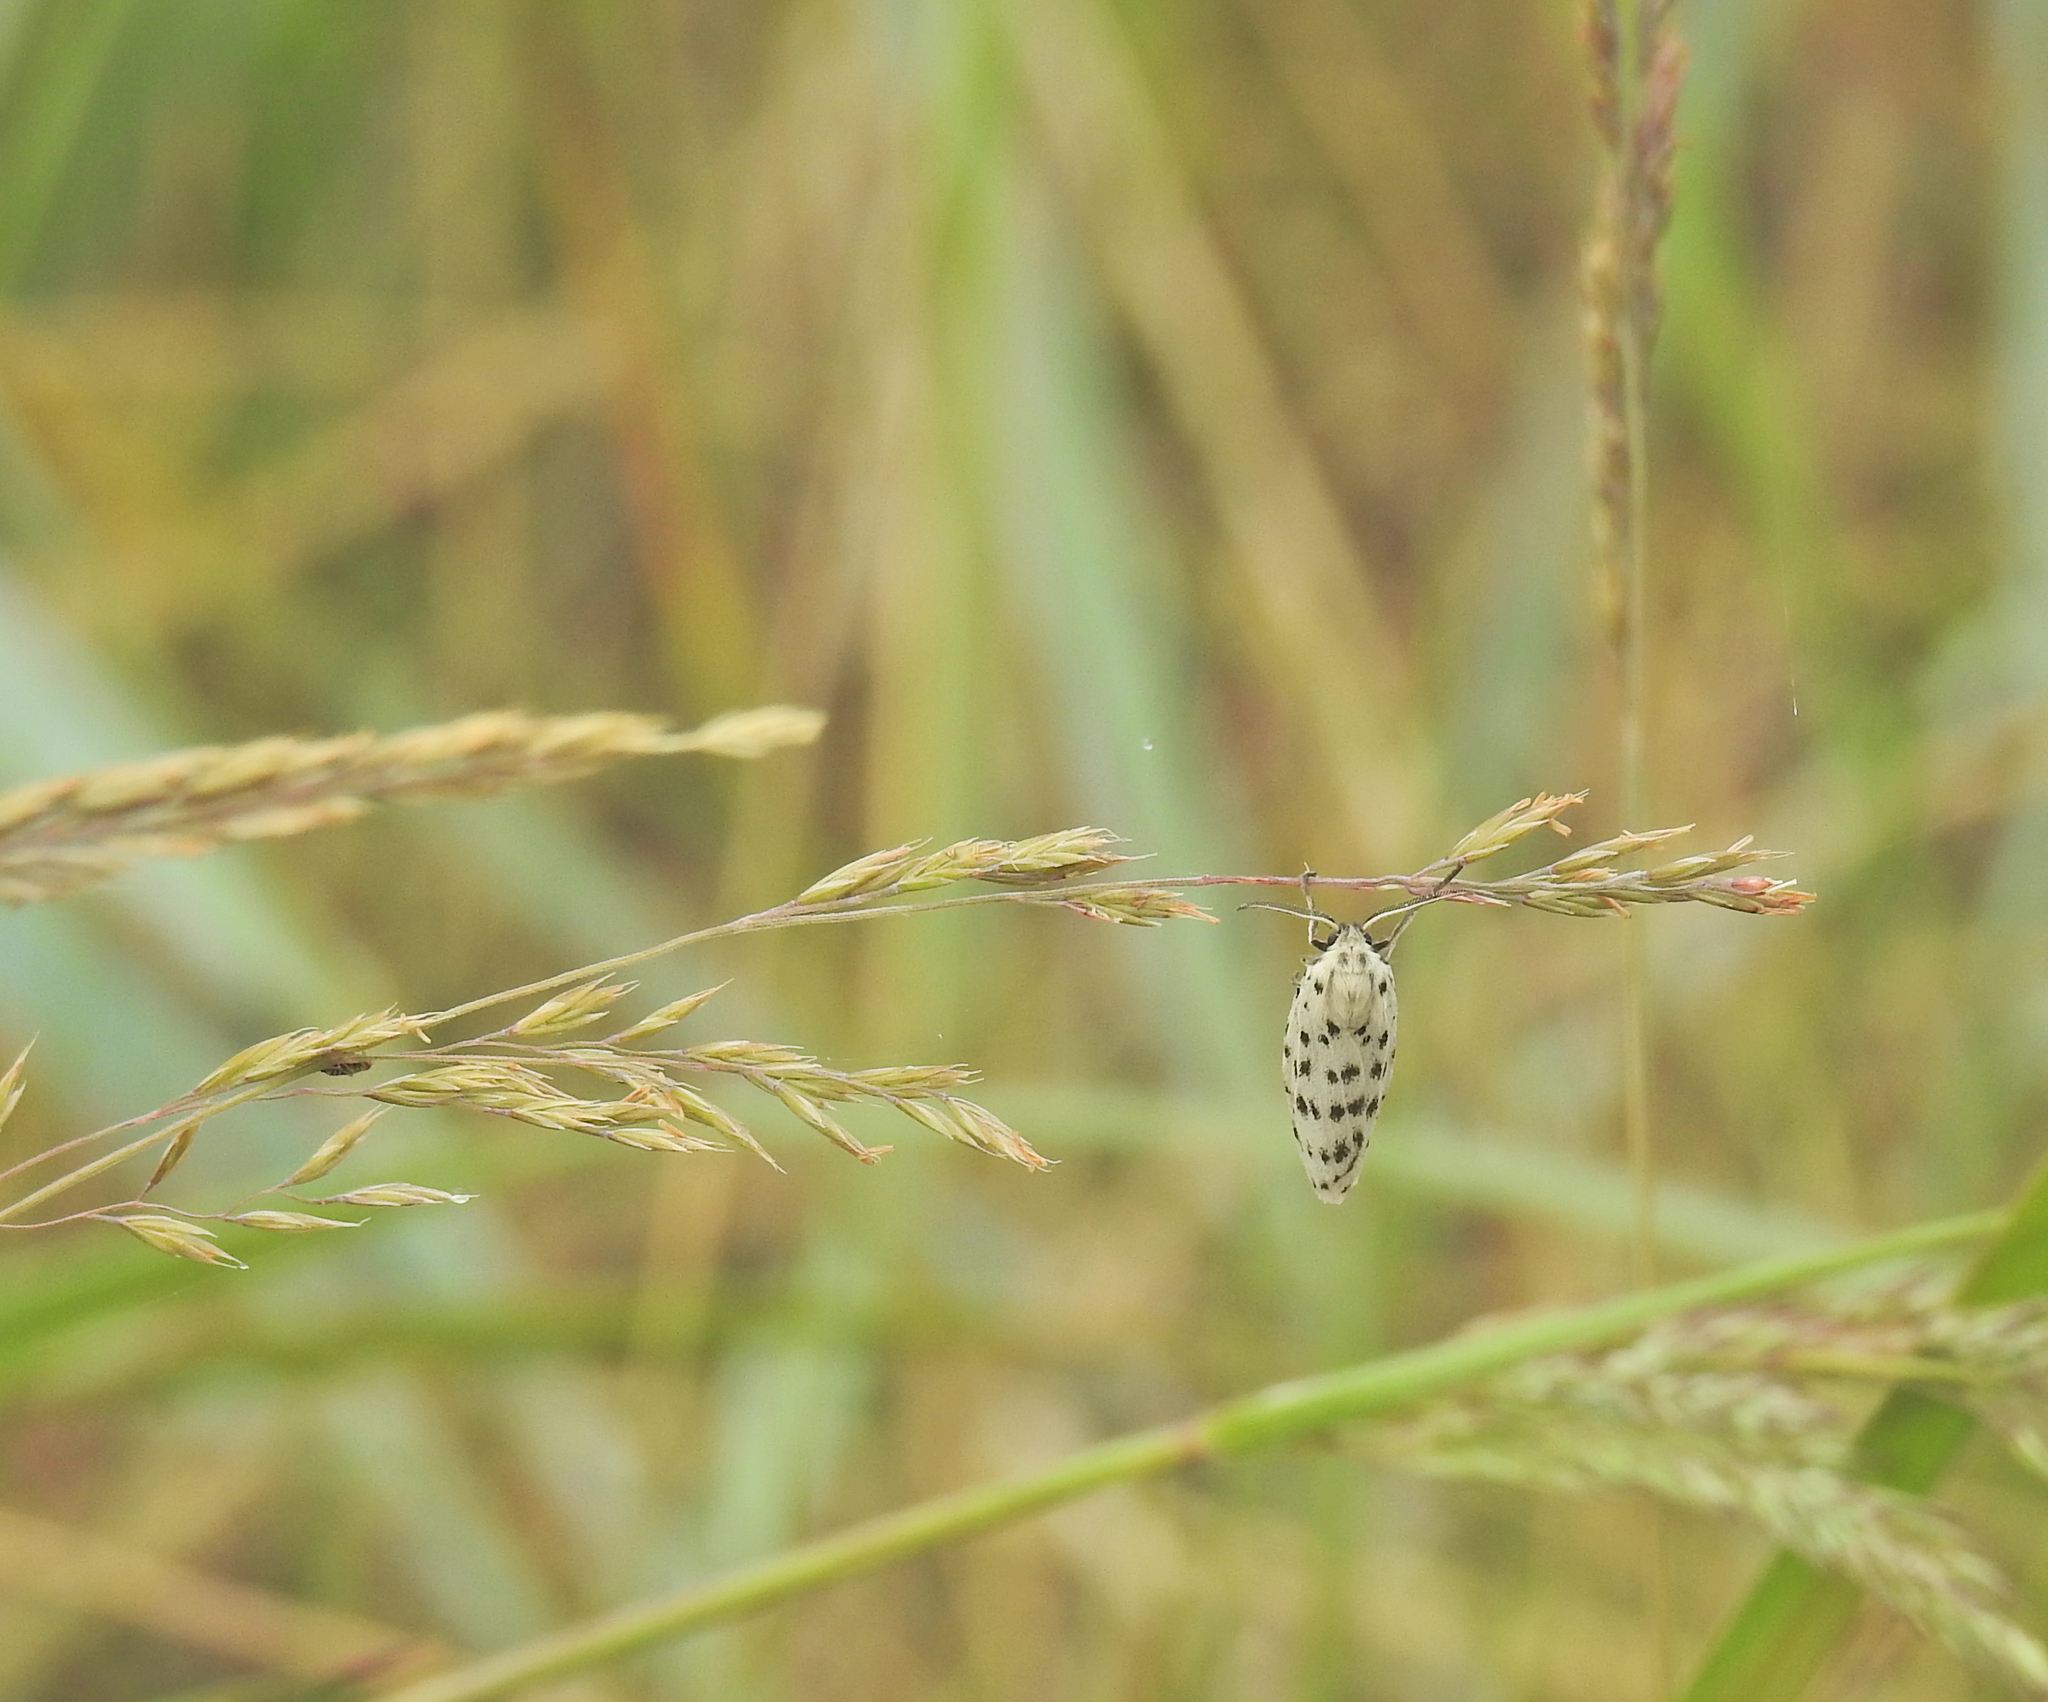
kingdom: Animalia
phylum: Arthropoda
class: Insecta
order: Lepidoptera
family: Erebidae
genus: Coscinia
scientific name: Coscinia cribraria
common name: Speckled footman
